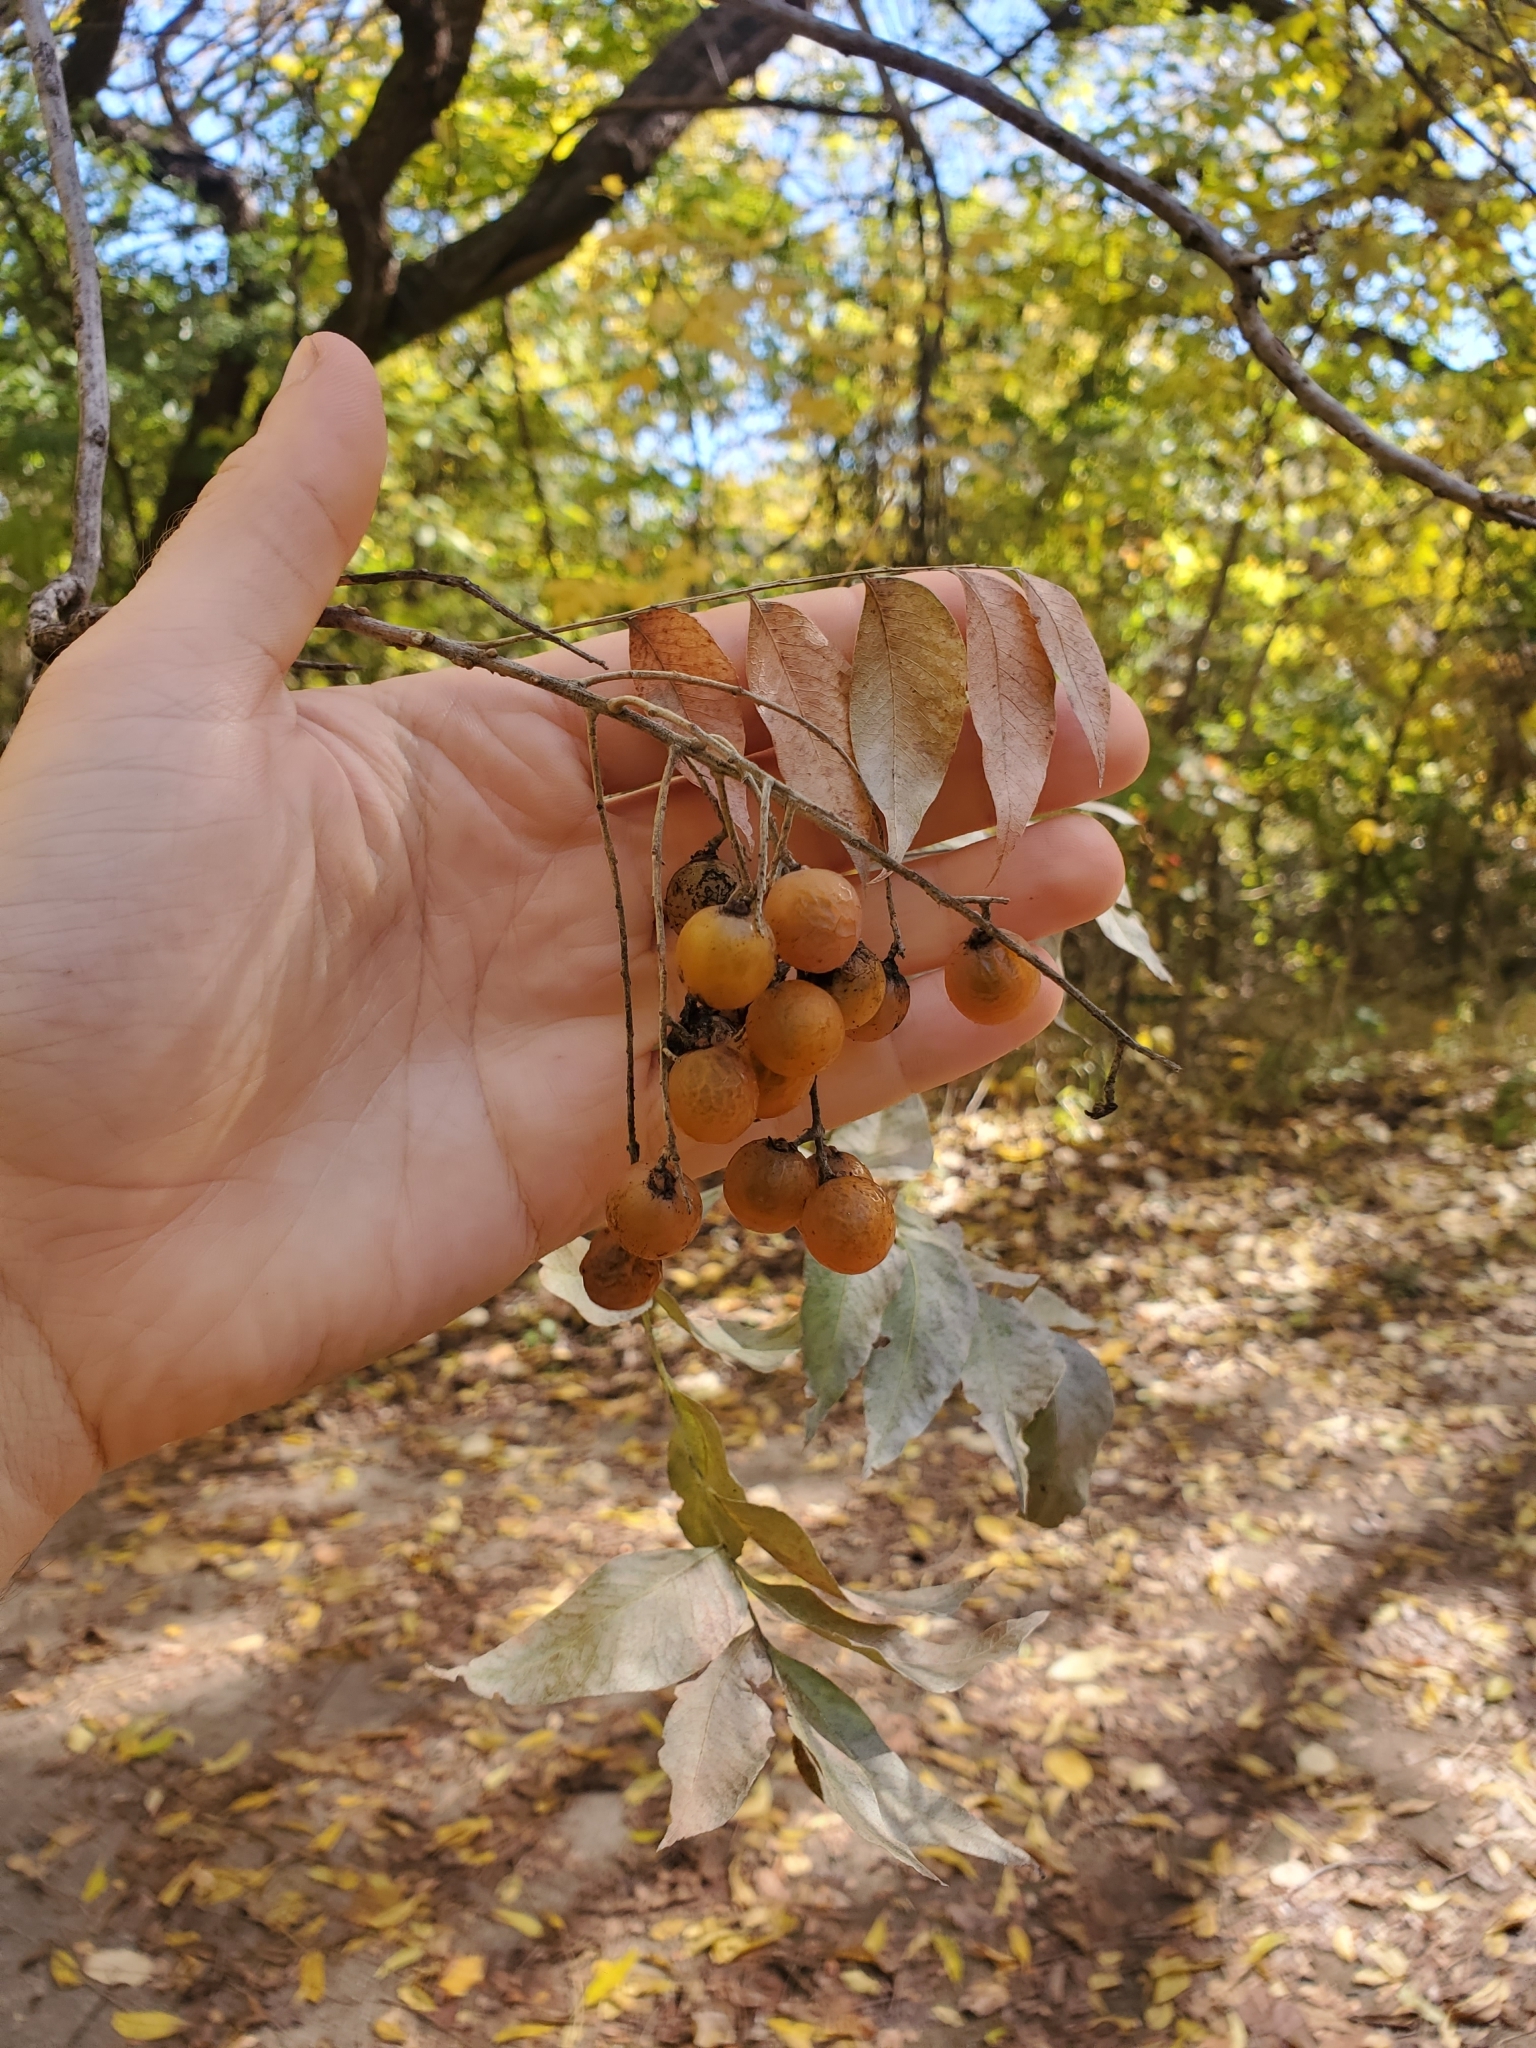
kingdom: Plantae
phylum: Tracheophyta
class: Magnoliopsida
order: Sapindales
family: Sapindaceae
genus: Sapindus
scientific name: Sapindus drummondii
